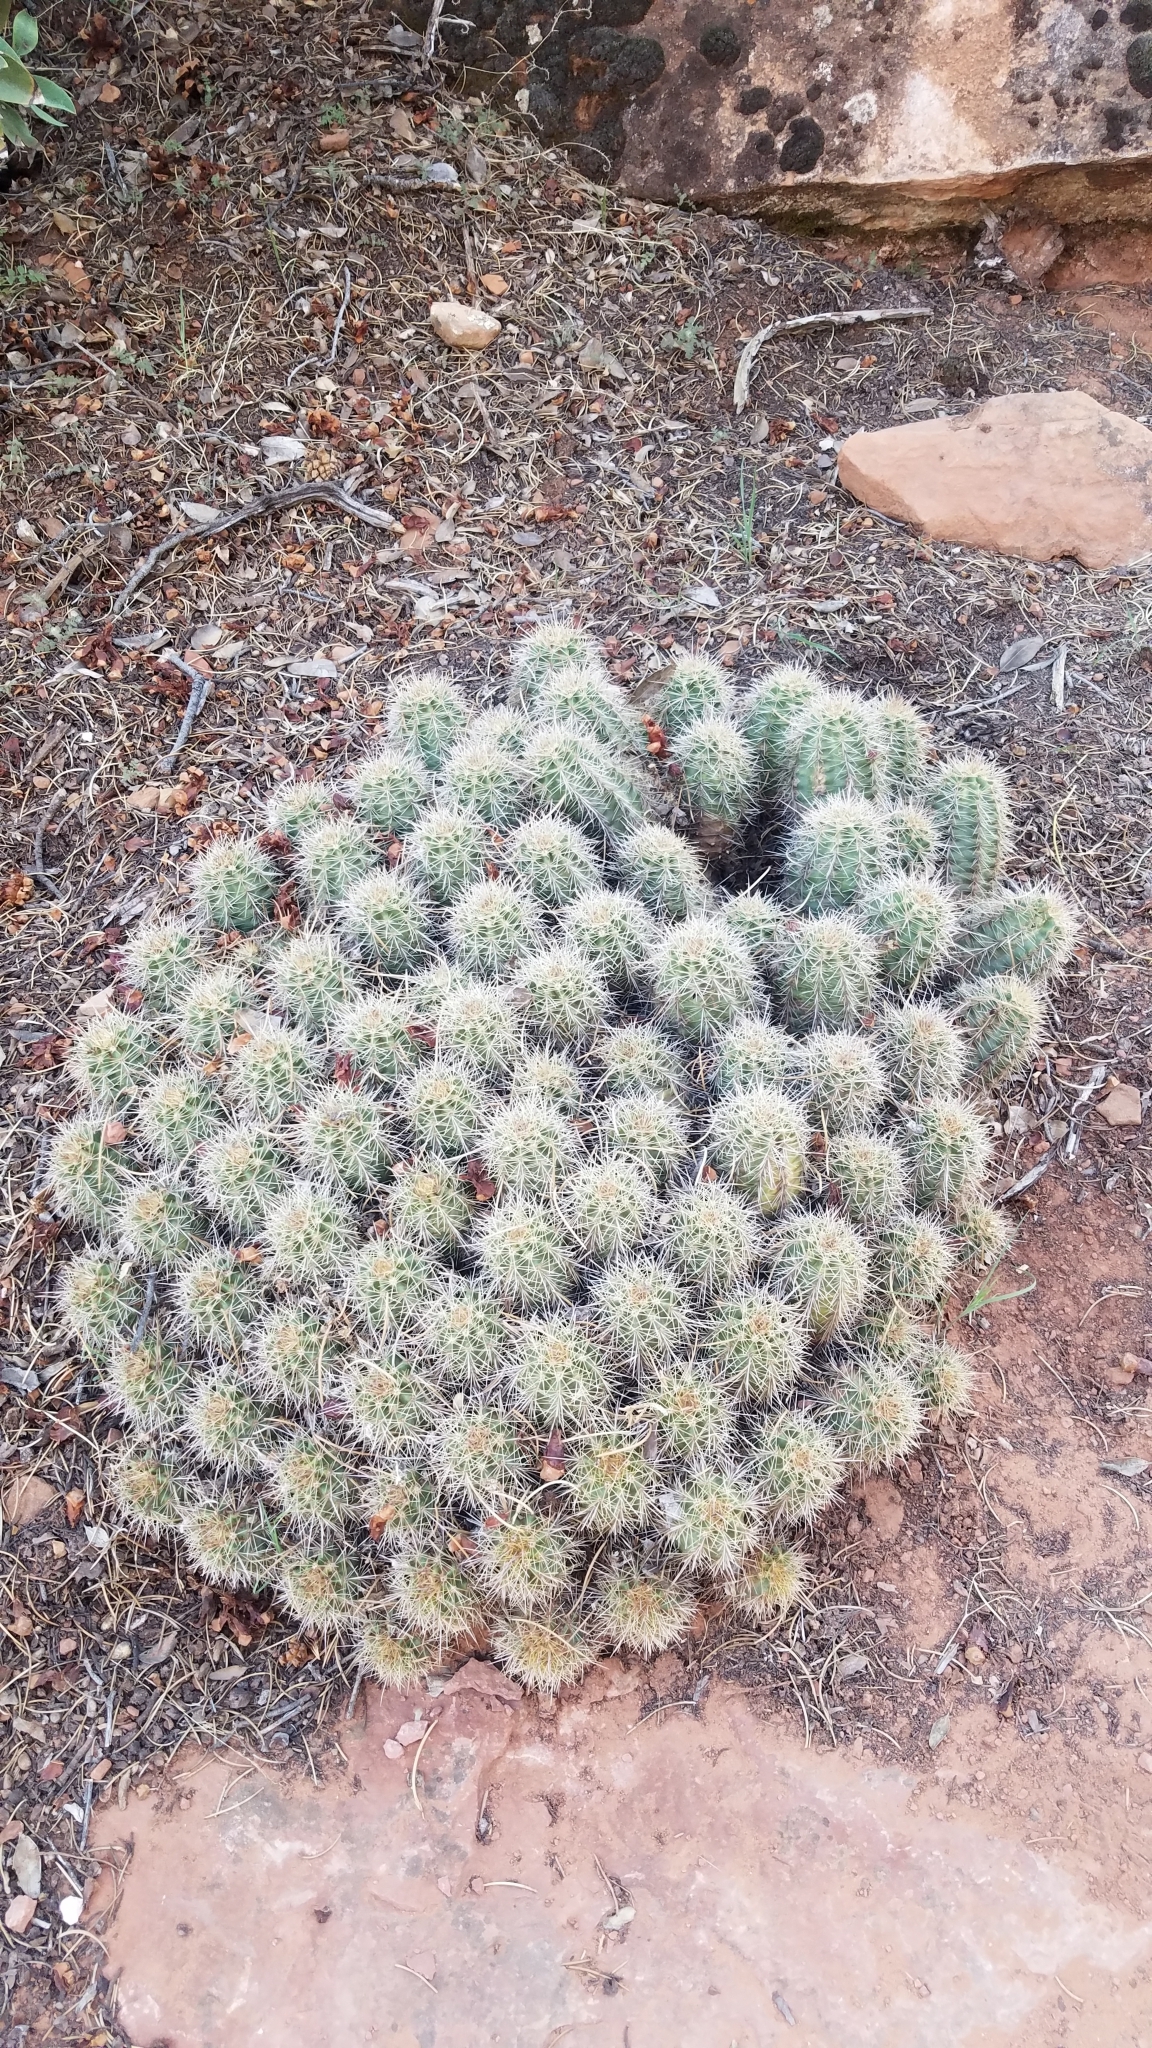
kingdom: Plantae
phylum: Tracheophyta
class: Magnoliopsida
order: Caryophyllales
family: Cactaceae
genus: Echinocereus
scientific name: Echinocereus bakeri
